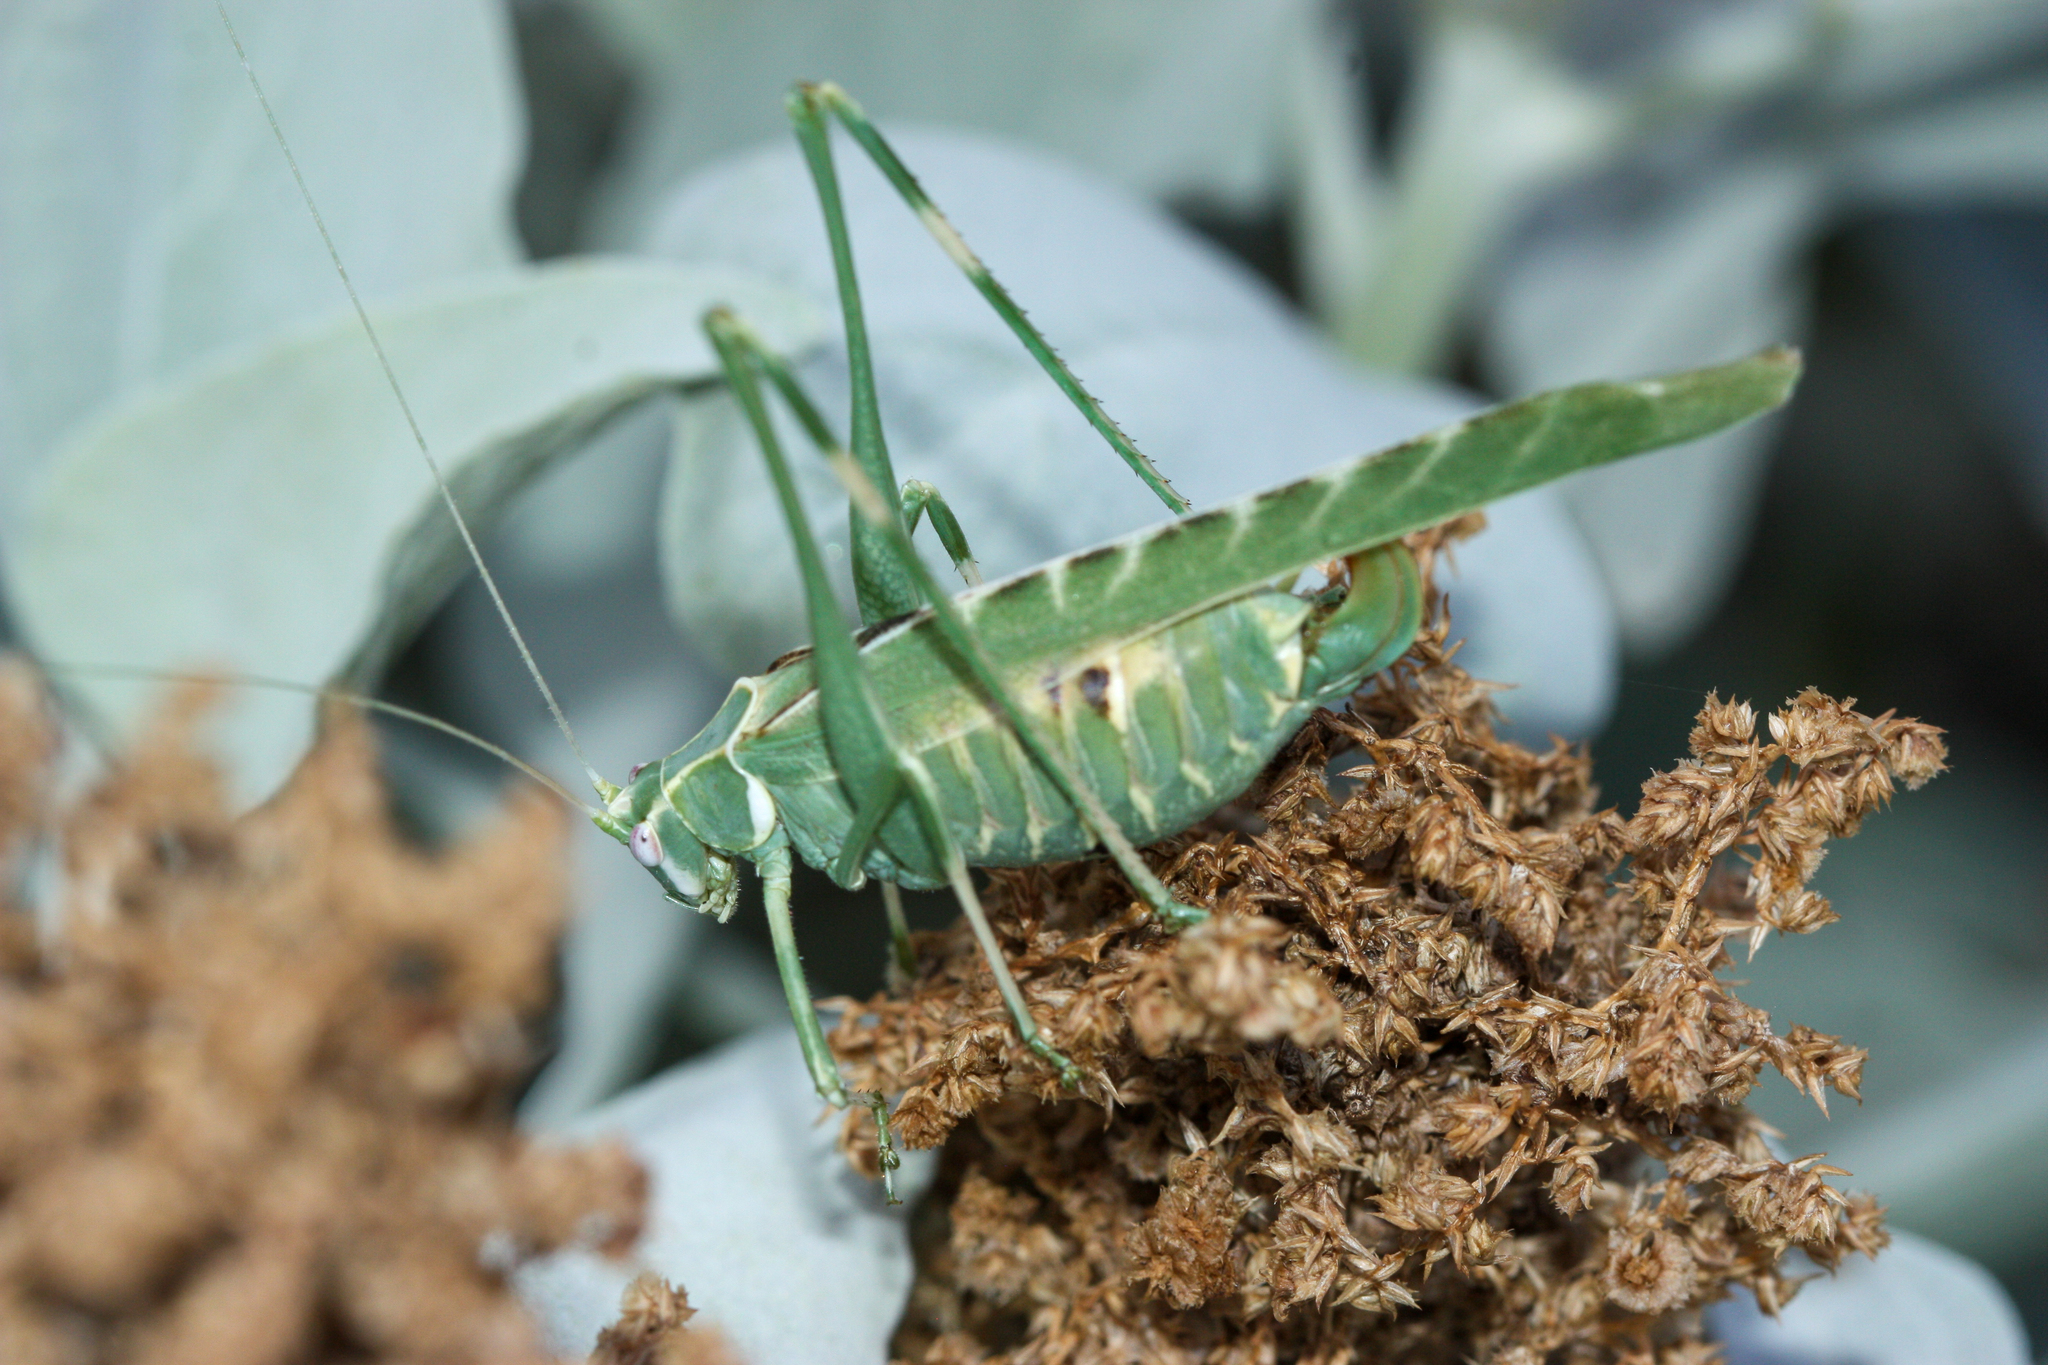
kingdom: Animalia
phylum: Arthropoda
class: Insecta
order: Orthoptera
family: Tettigoniidae
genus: Insara
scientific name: Insara elegans
